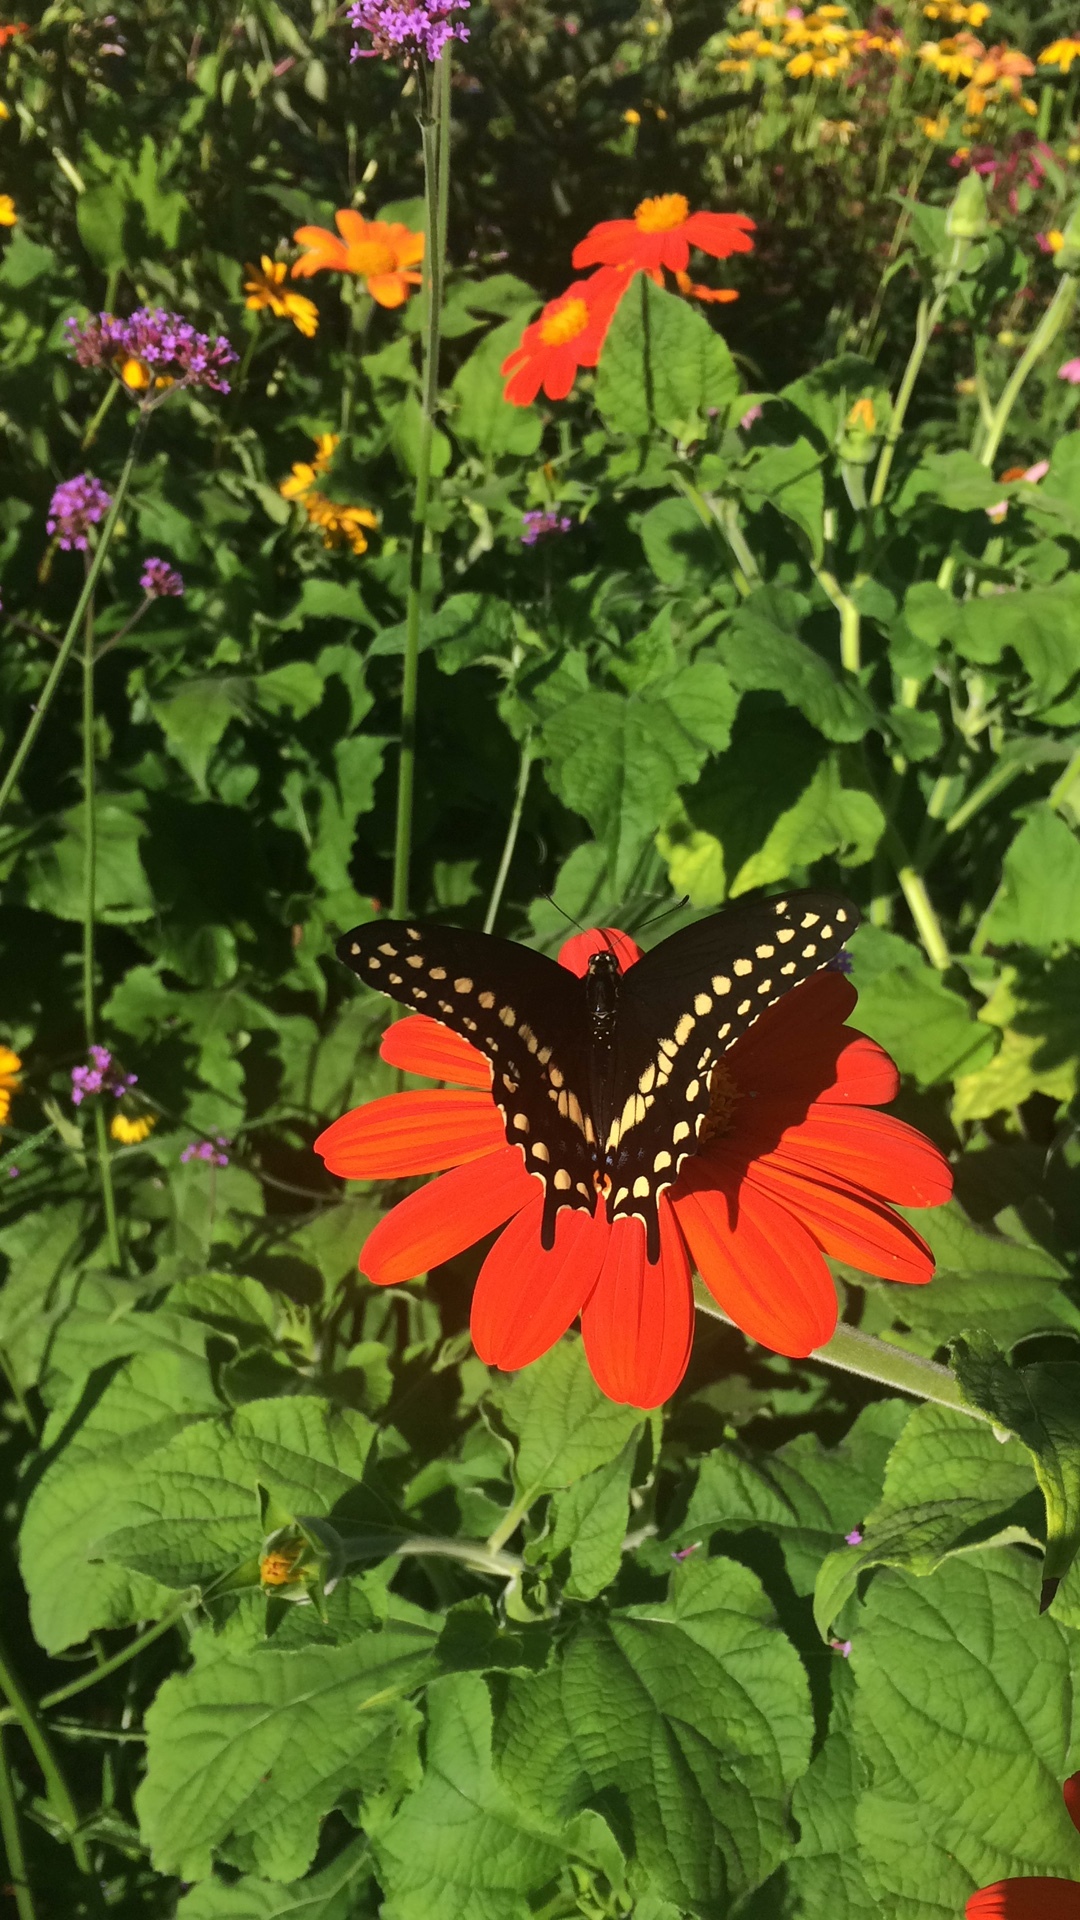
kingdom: Animalia
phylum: Arthropoda
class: Insecta
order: Lepidoptera
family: Papilionidae
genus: Papilio
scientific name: Papilio polyxenes
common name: Black swallowtail
